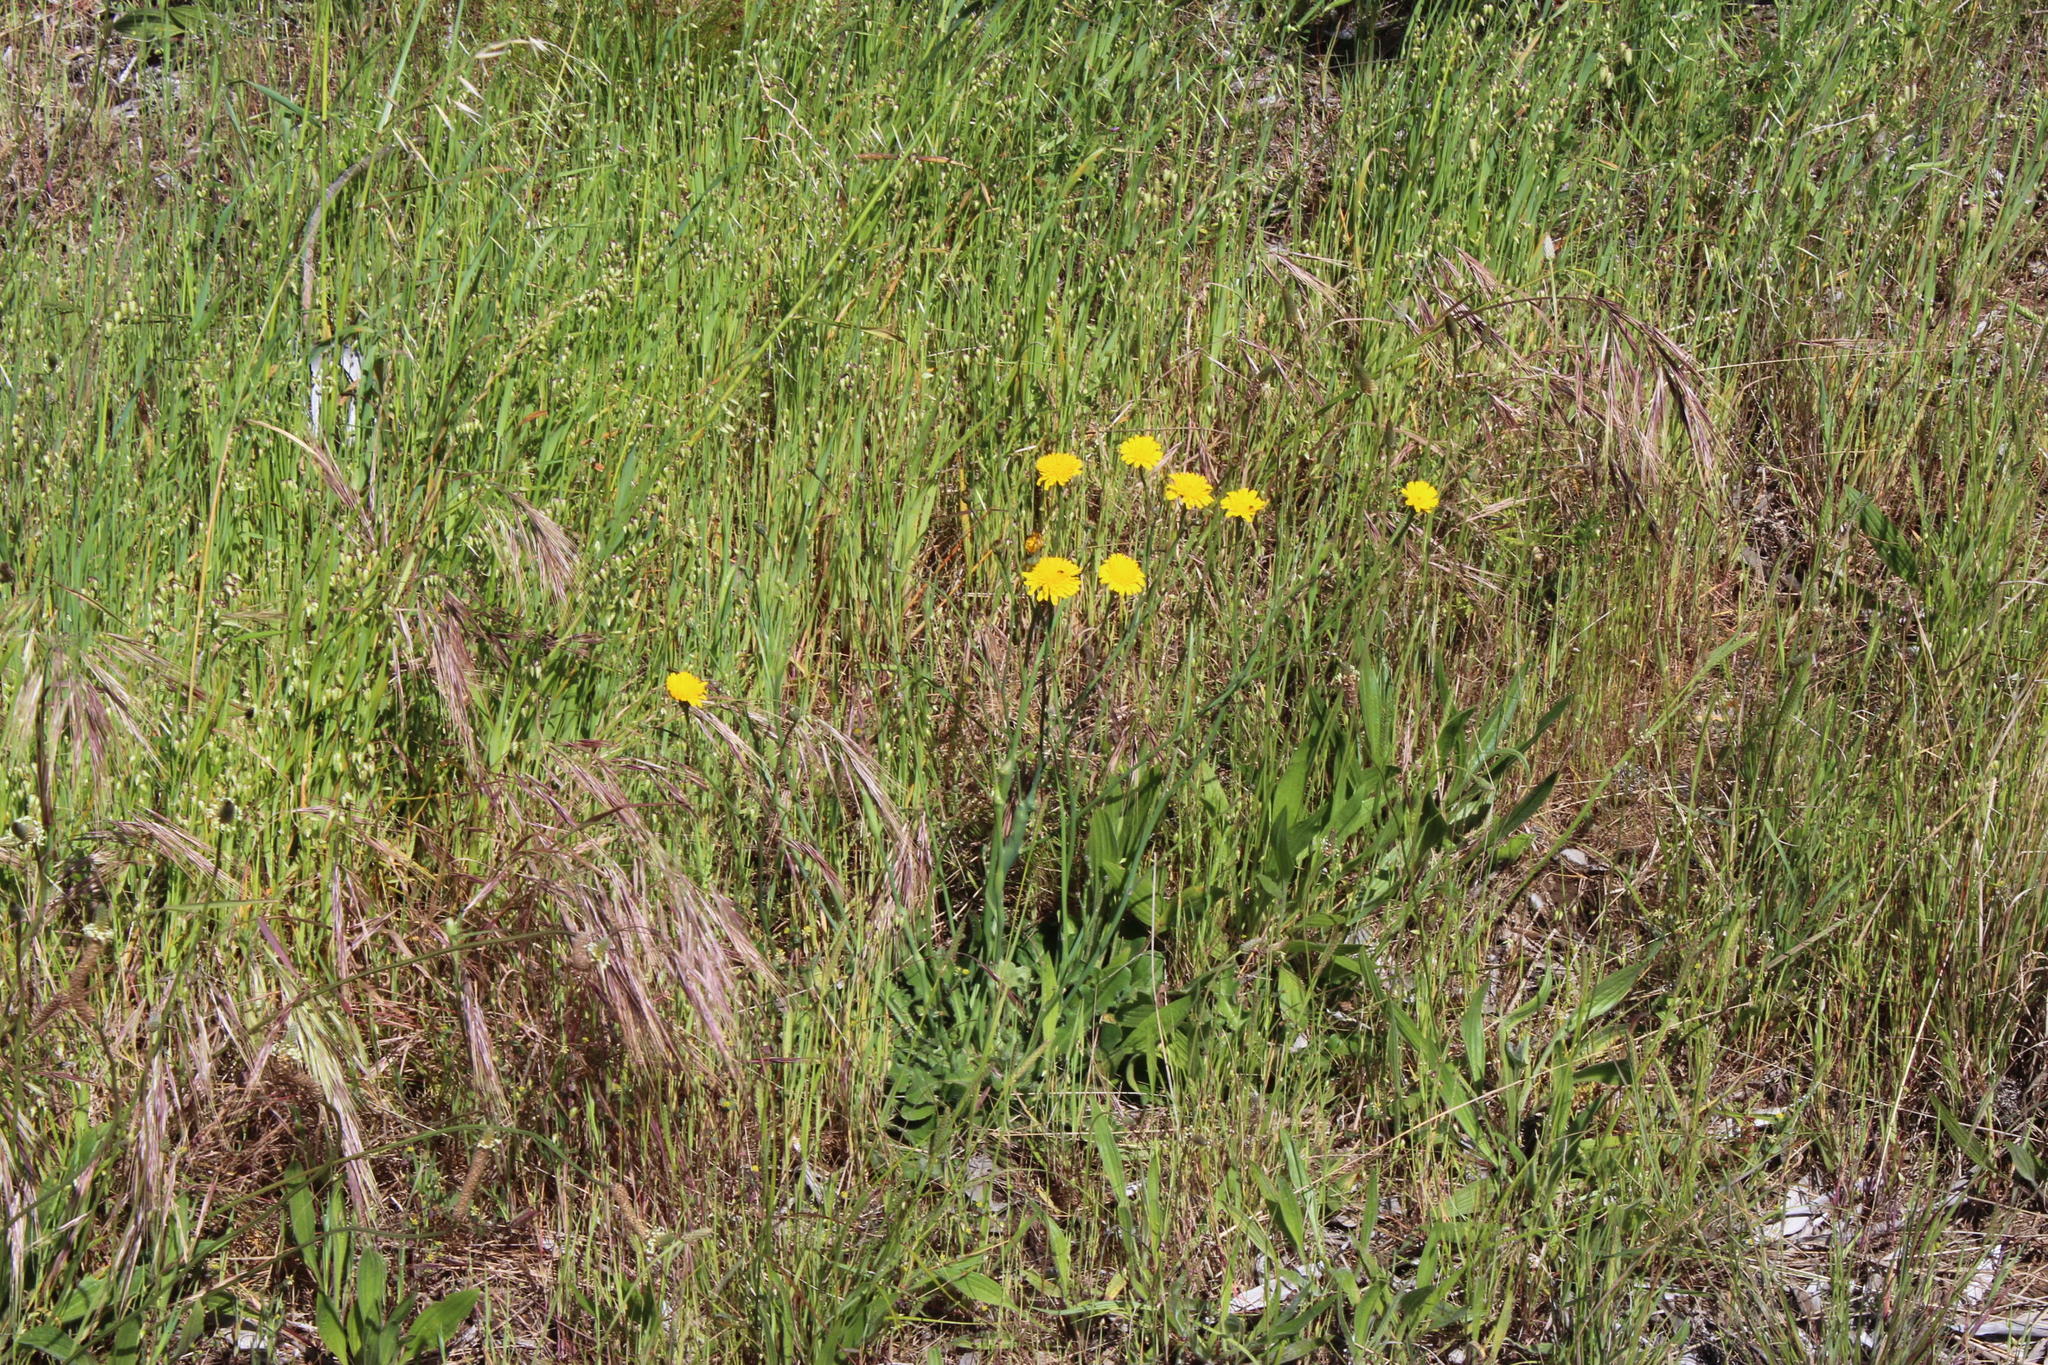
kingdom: Plantae
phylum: Tracheophyta
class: Magnoliopsida
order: Asterales
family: Asteraceae
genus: Hypochaeris
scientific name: Hypochaeris radicata
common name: Flatweed
